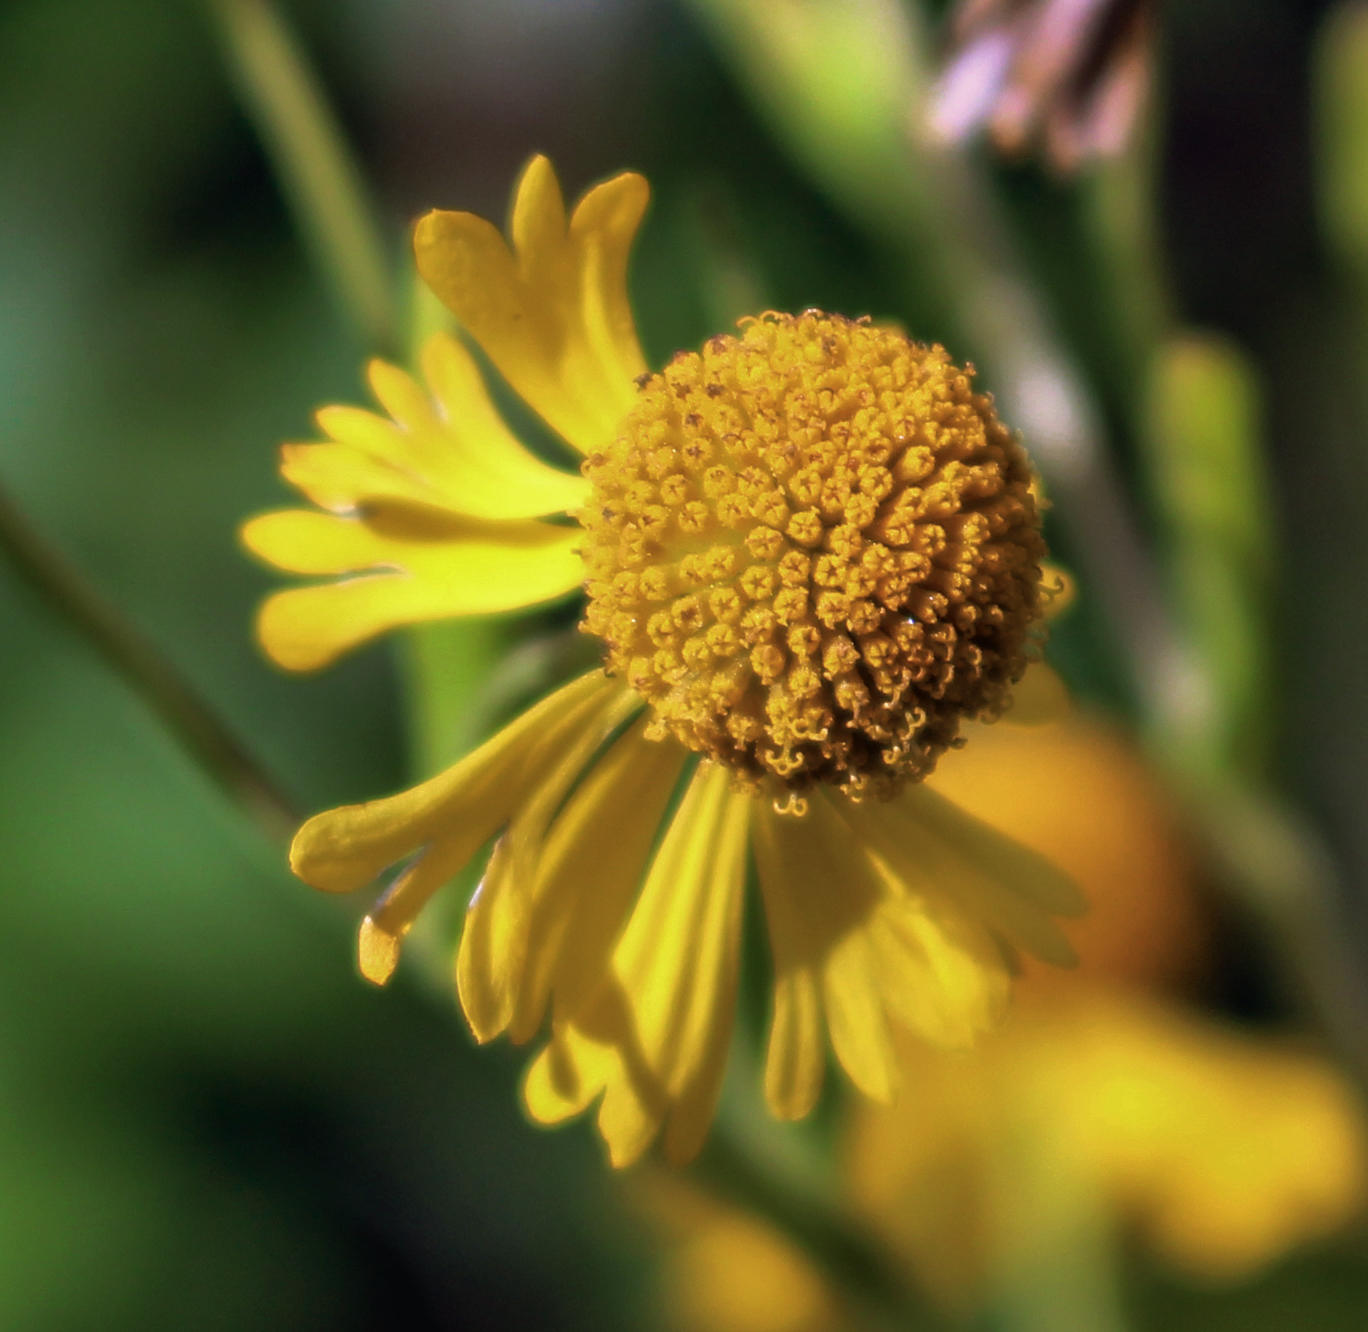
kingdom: Plantae
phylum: Tracheophyta
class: Magnoliopsida
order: Asterales
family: Asteraceae
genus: Helenium
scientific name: Helenium autumnale
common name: Sneezeweed
